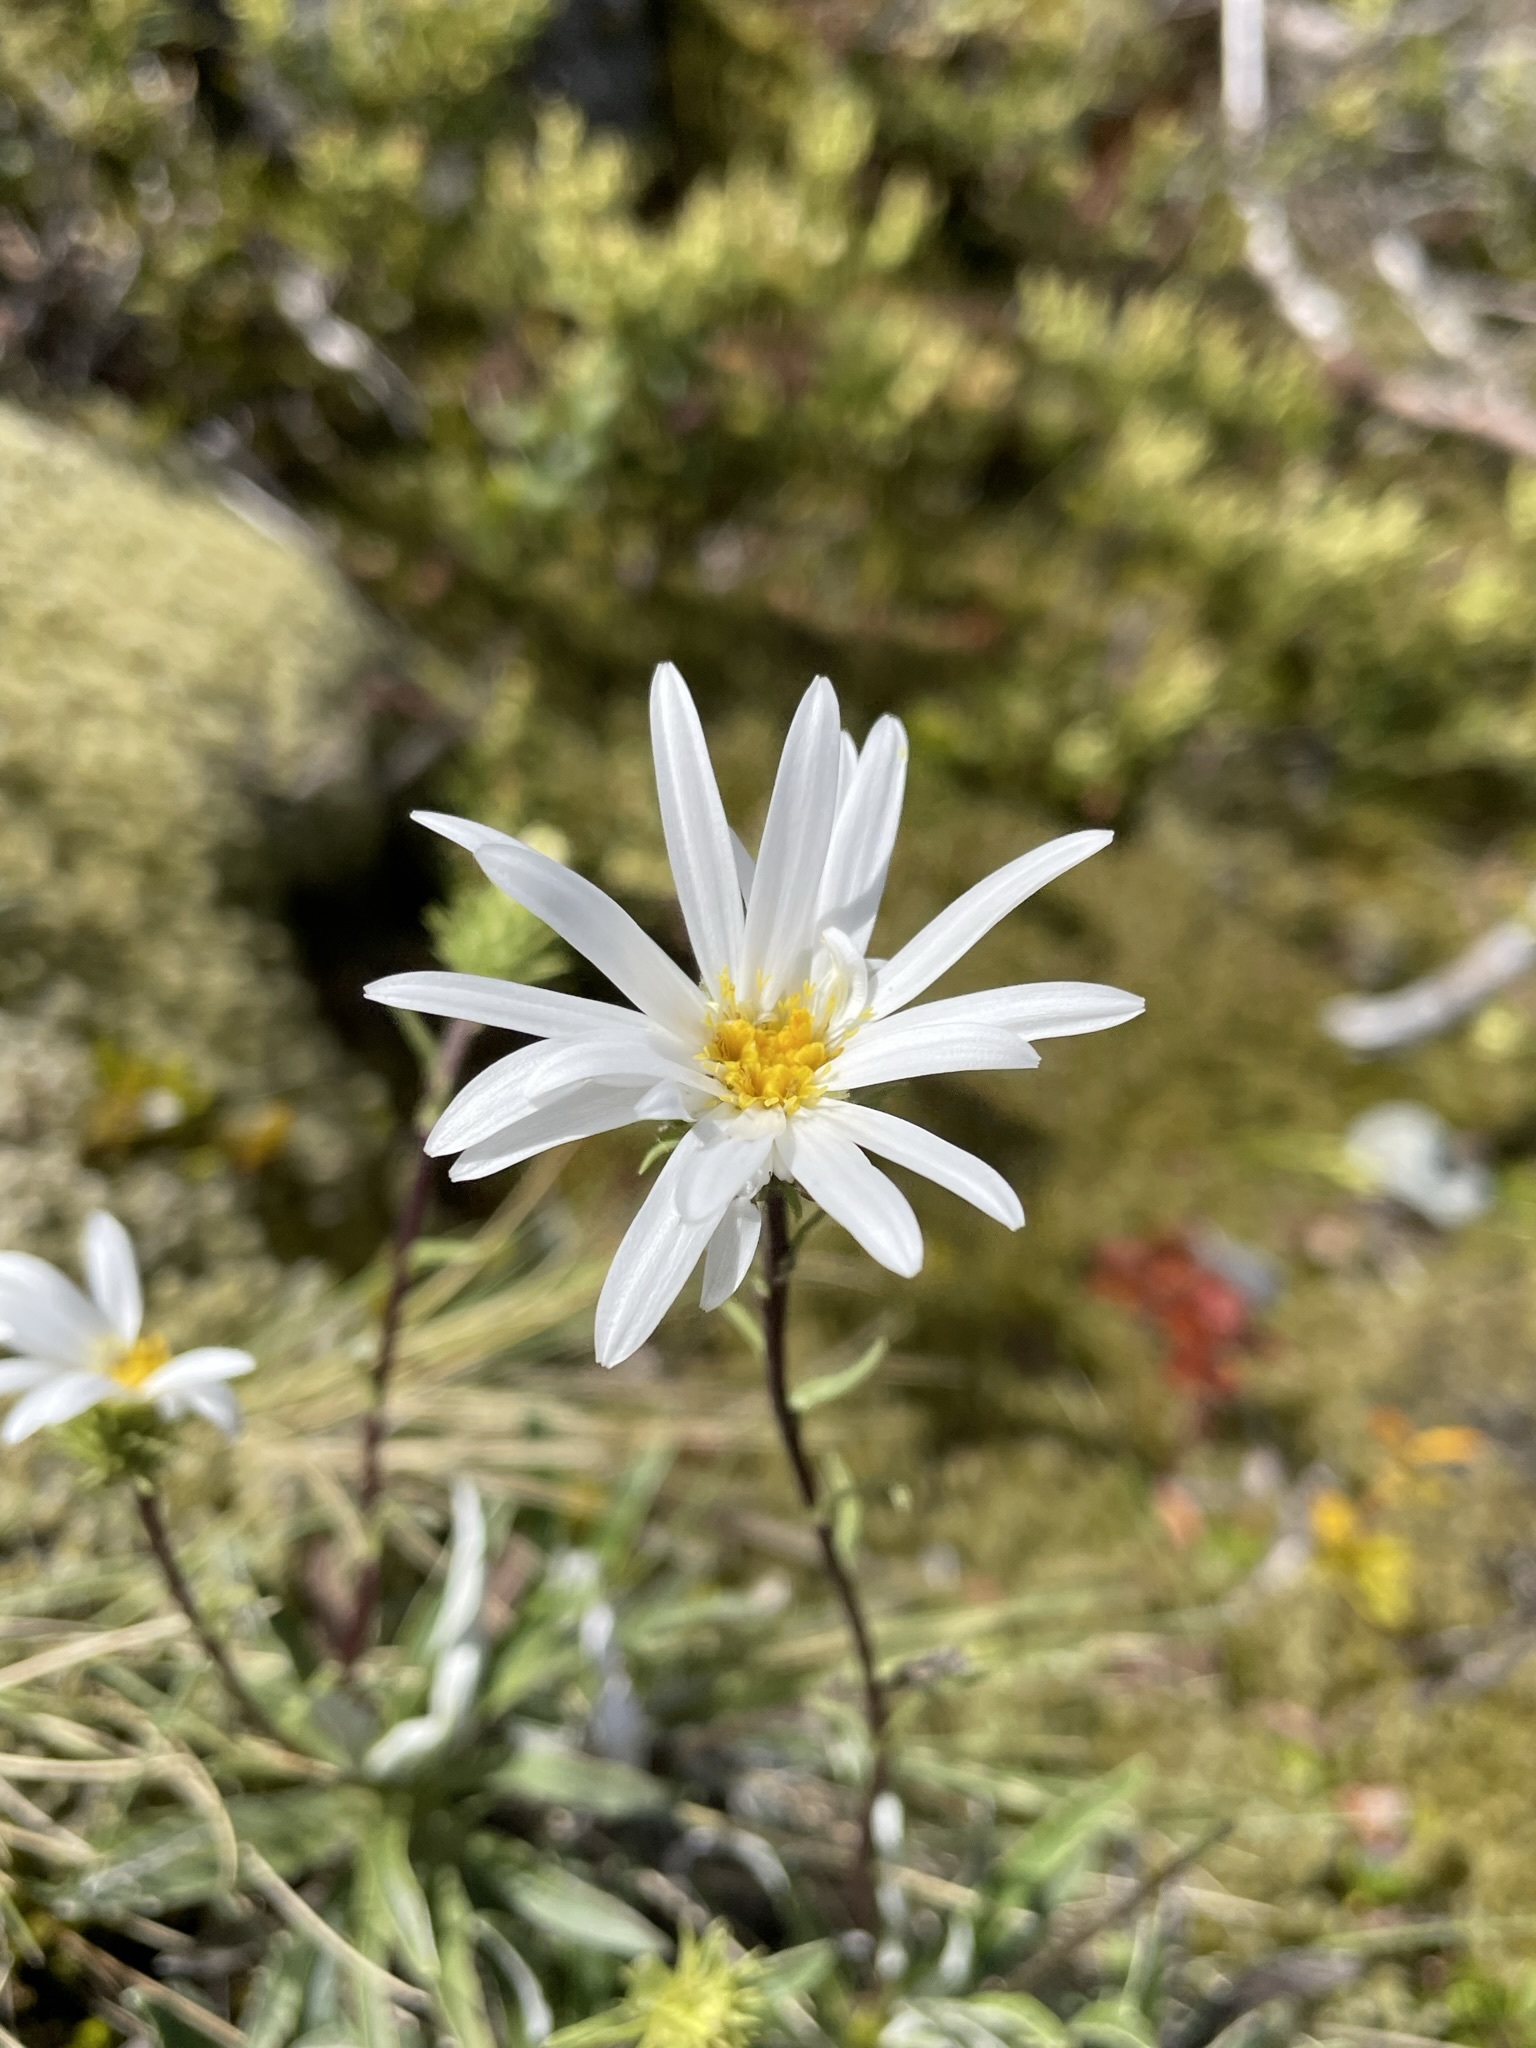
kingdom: Plantae
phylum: Tracheophyta
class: Magnoliopsida
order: Asterales
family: Asteraceae
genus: Celmisia
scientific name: Celmisia angustifolia
